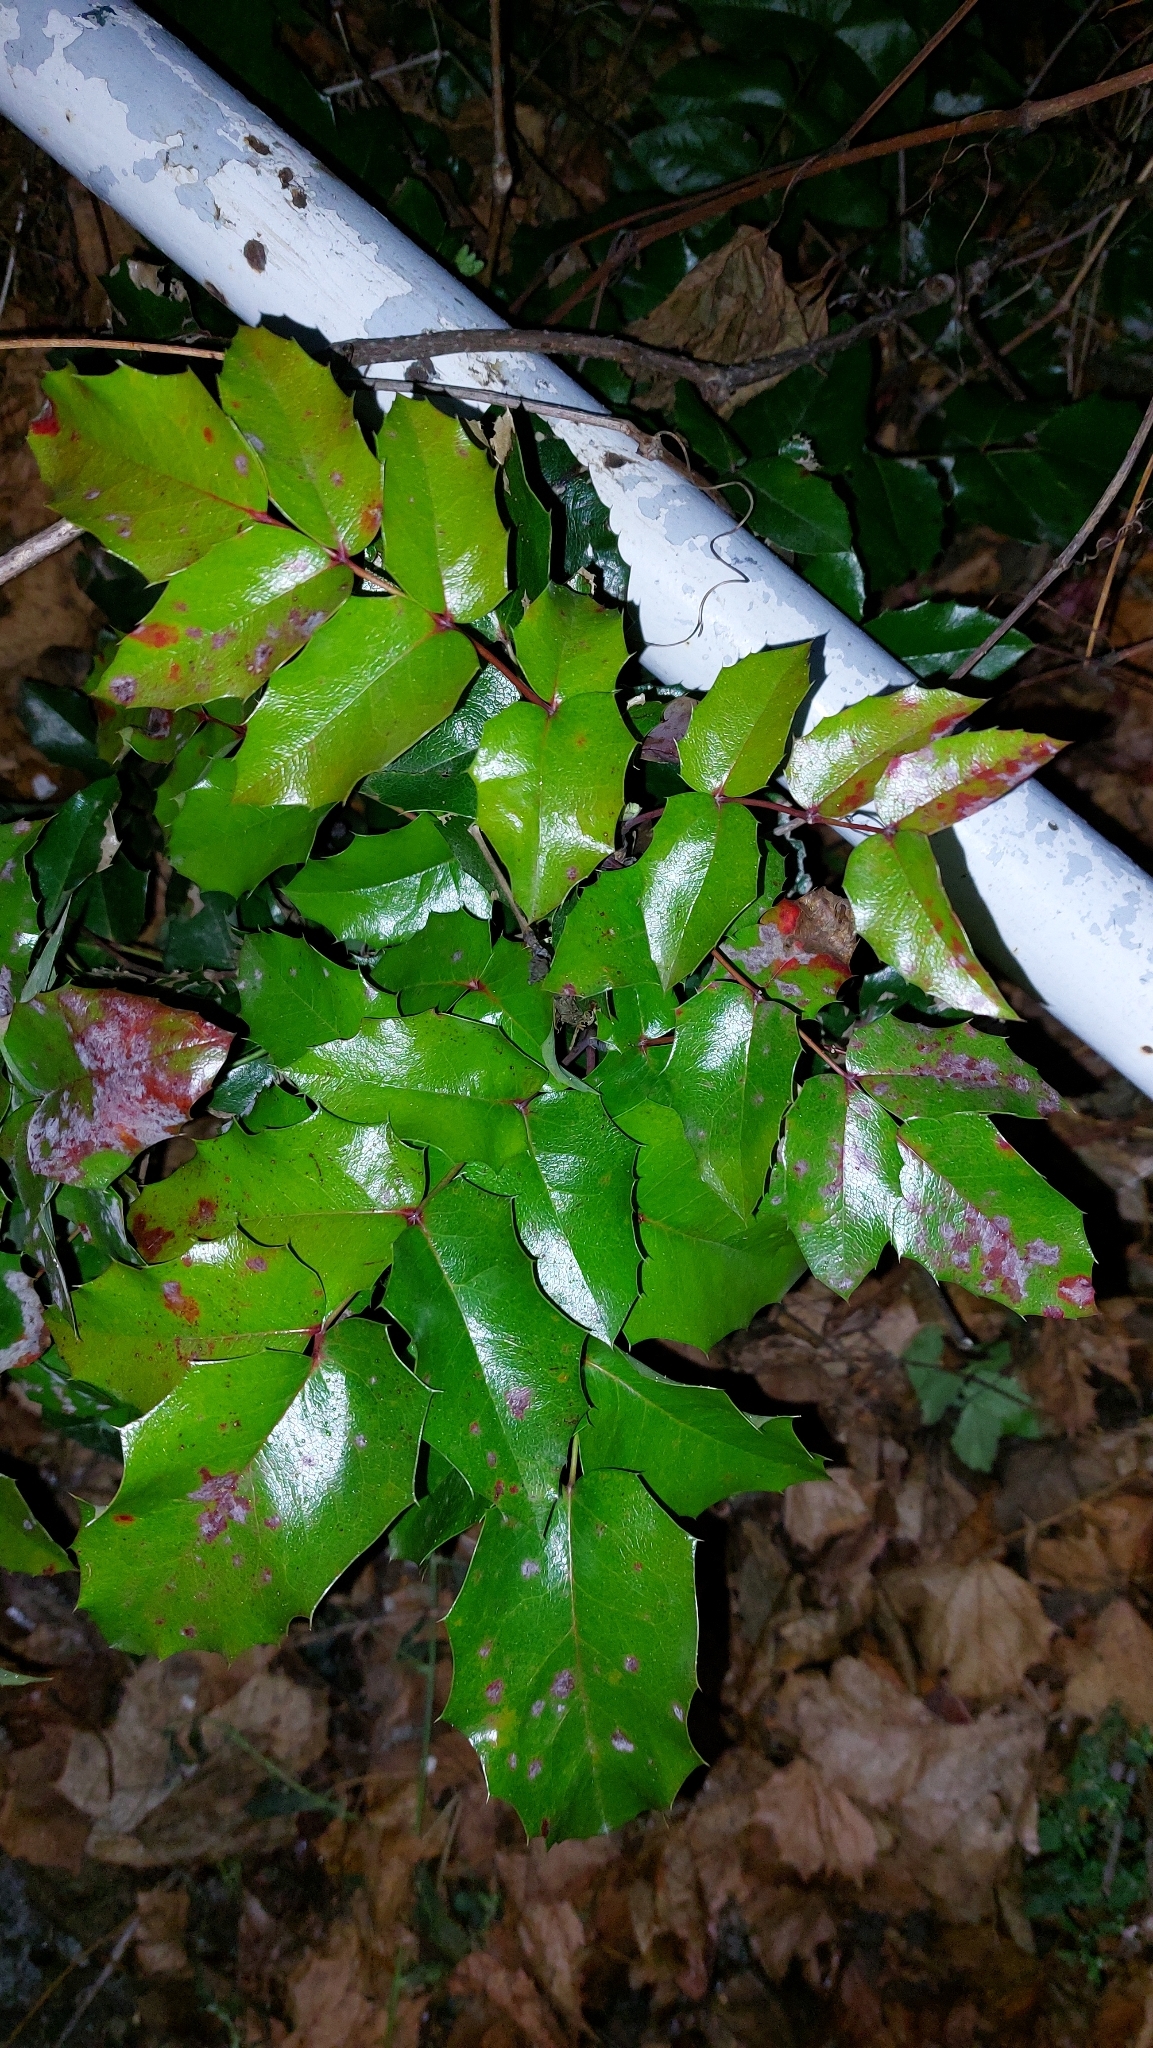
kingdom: Plantae
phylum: Tracheophyta
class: Magnoliopsida
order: Ranunculales
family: Berberidaceae
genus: Mahonia
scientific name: Mahonia aquifolium
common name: Oregon-grape
